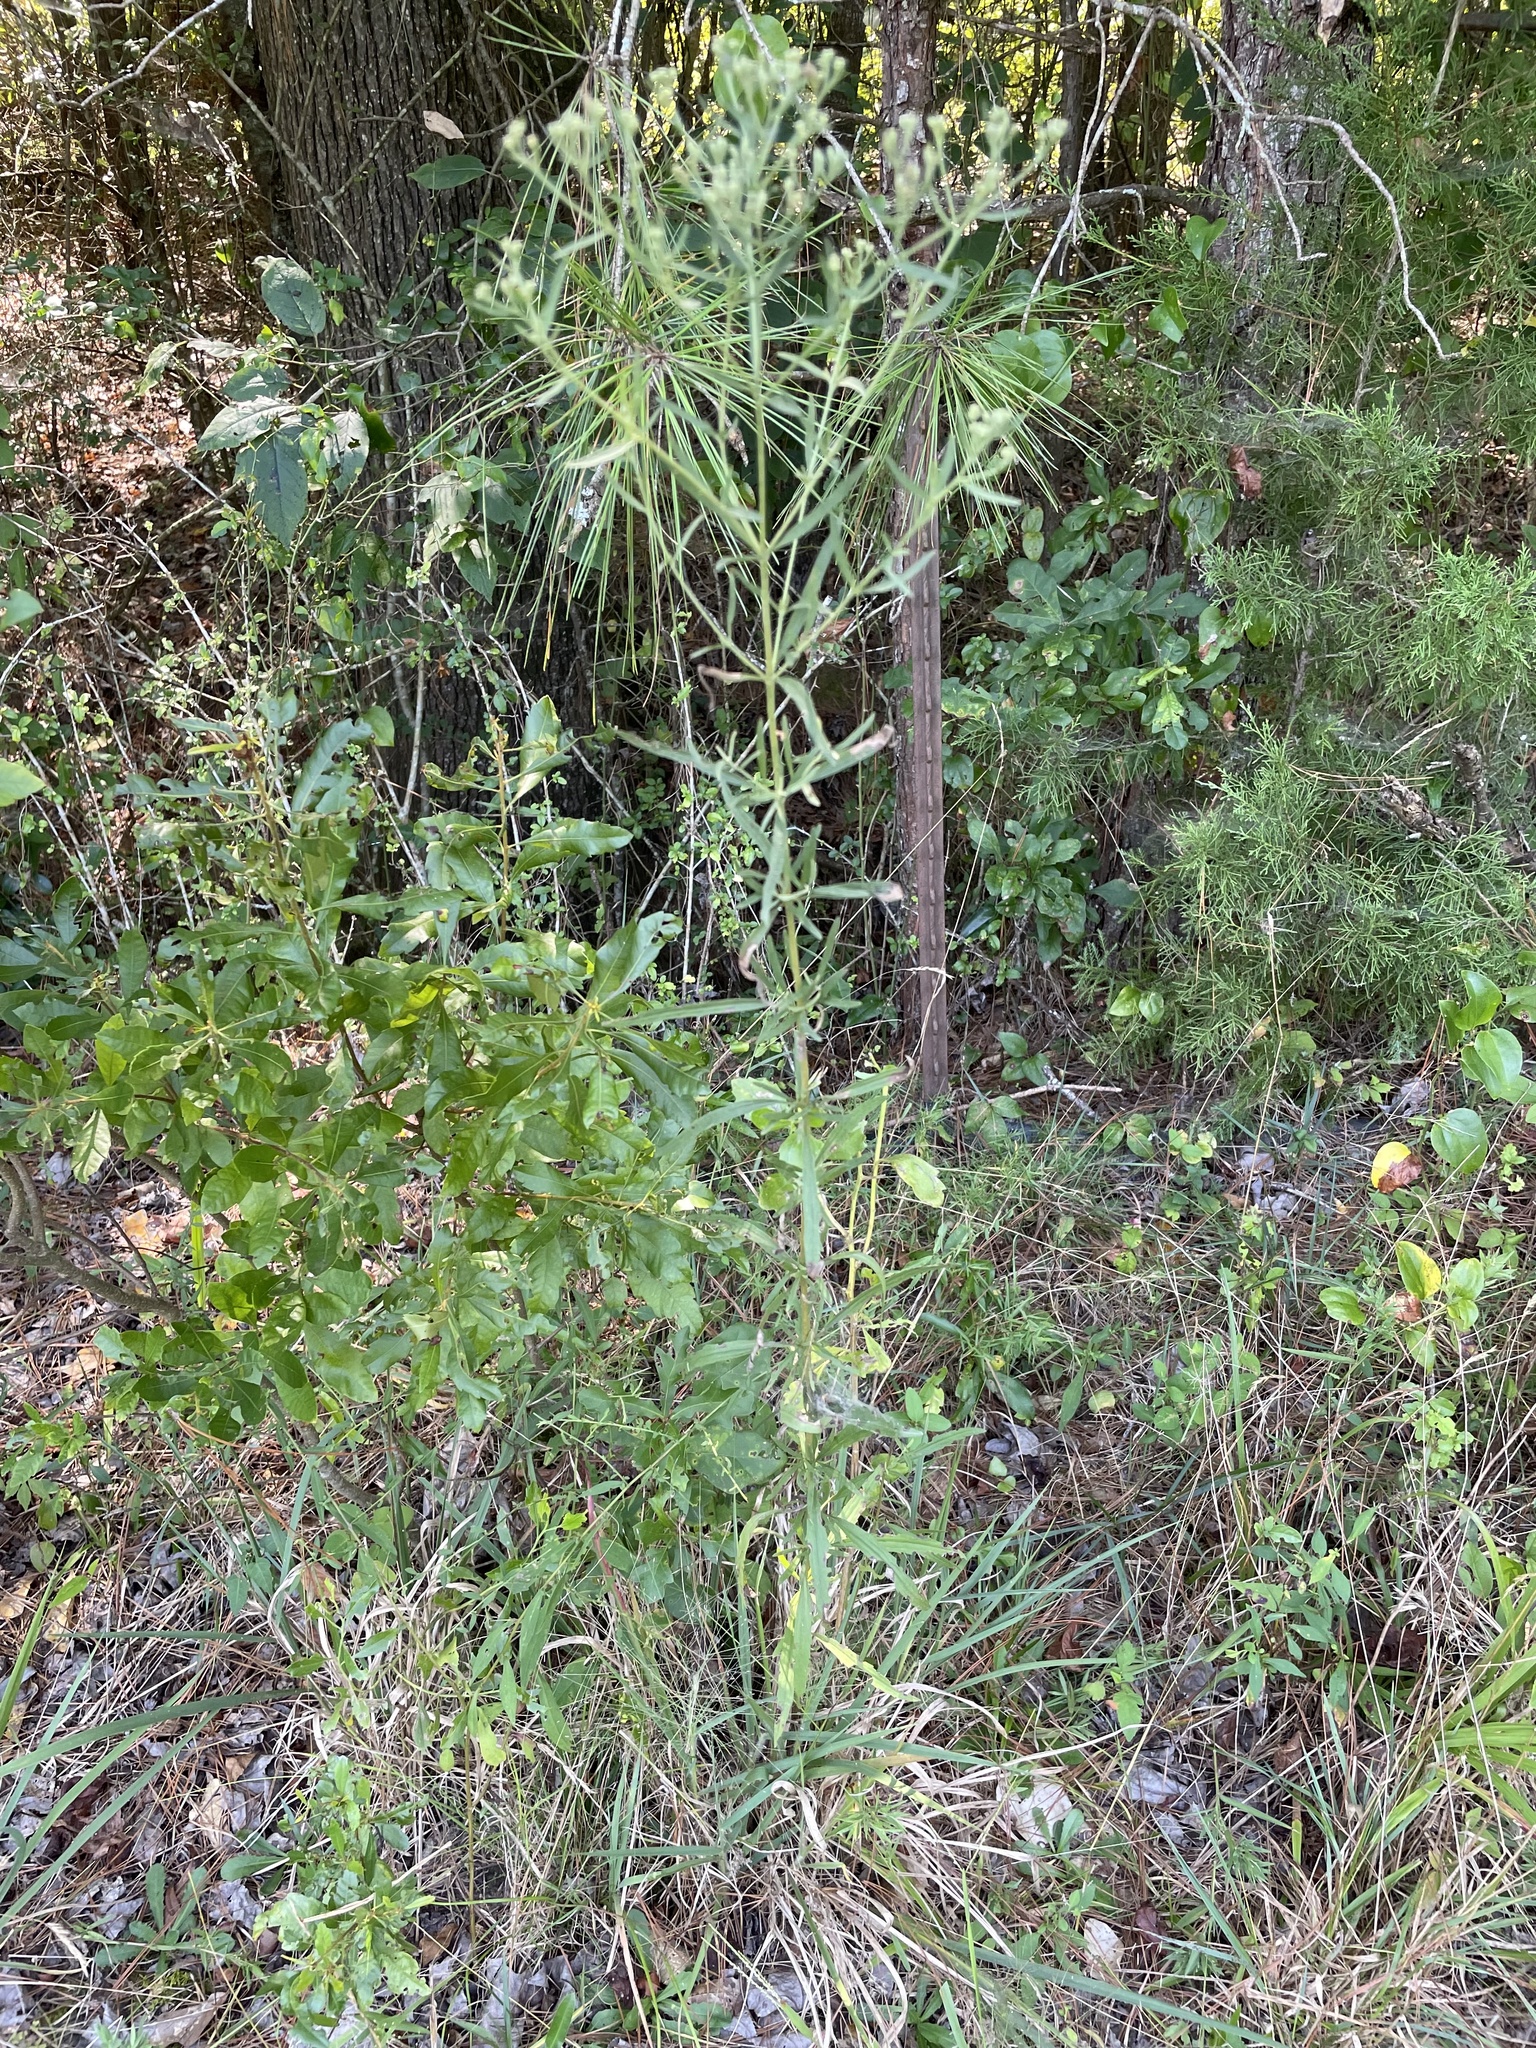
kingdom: Plantae
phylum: Tracheophyta
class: Magnoliopsida
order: Asterales
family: Asteraceae
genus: Eupatorium
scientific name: Eupatorium torreyanum
